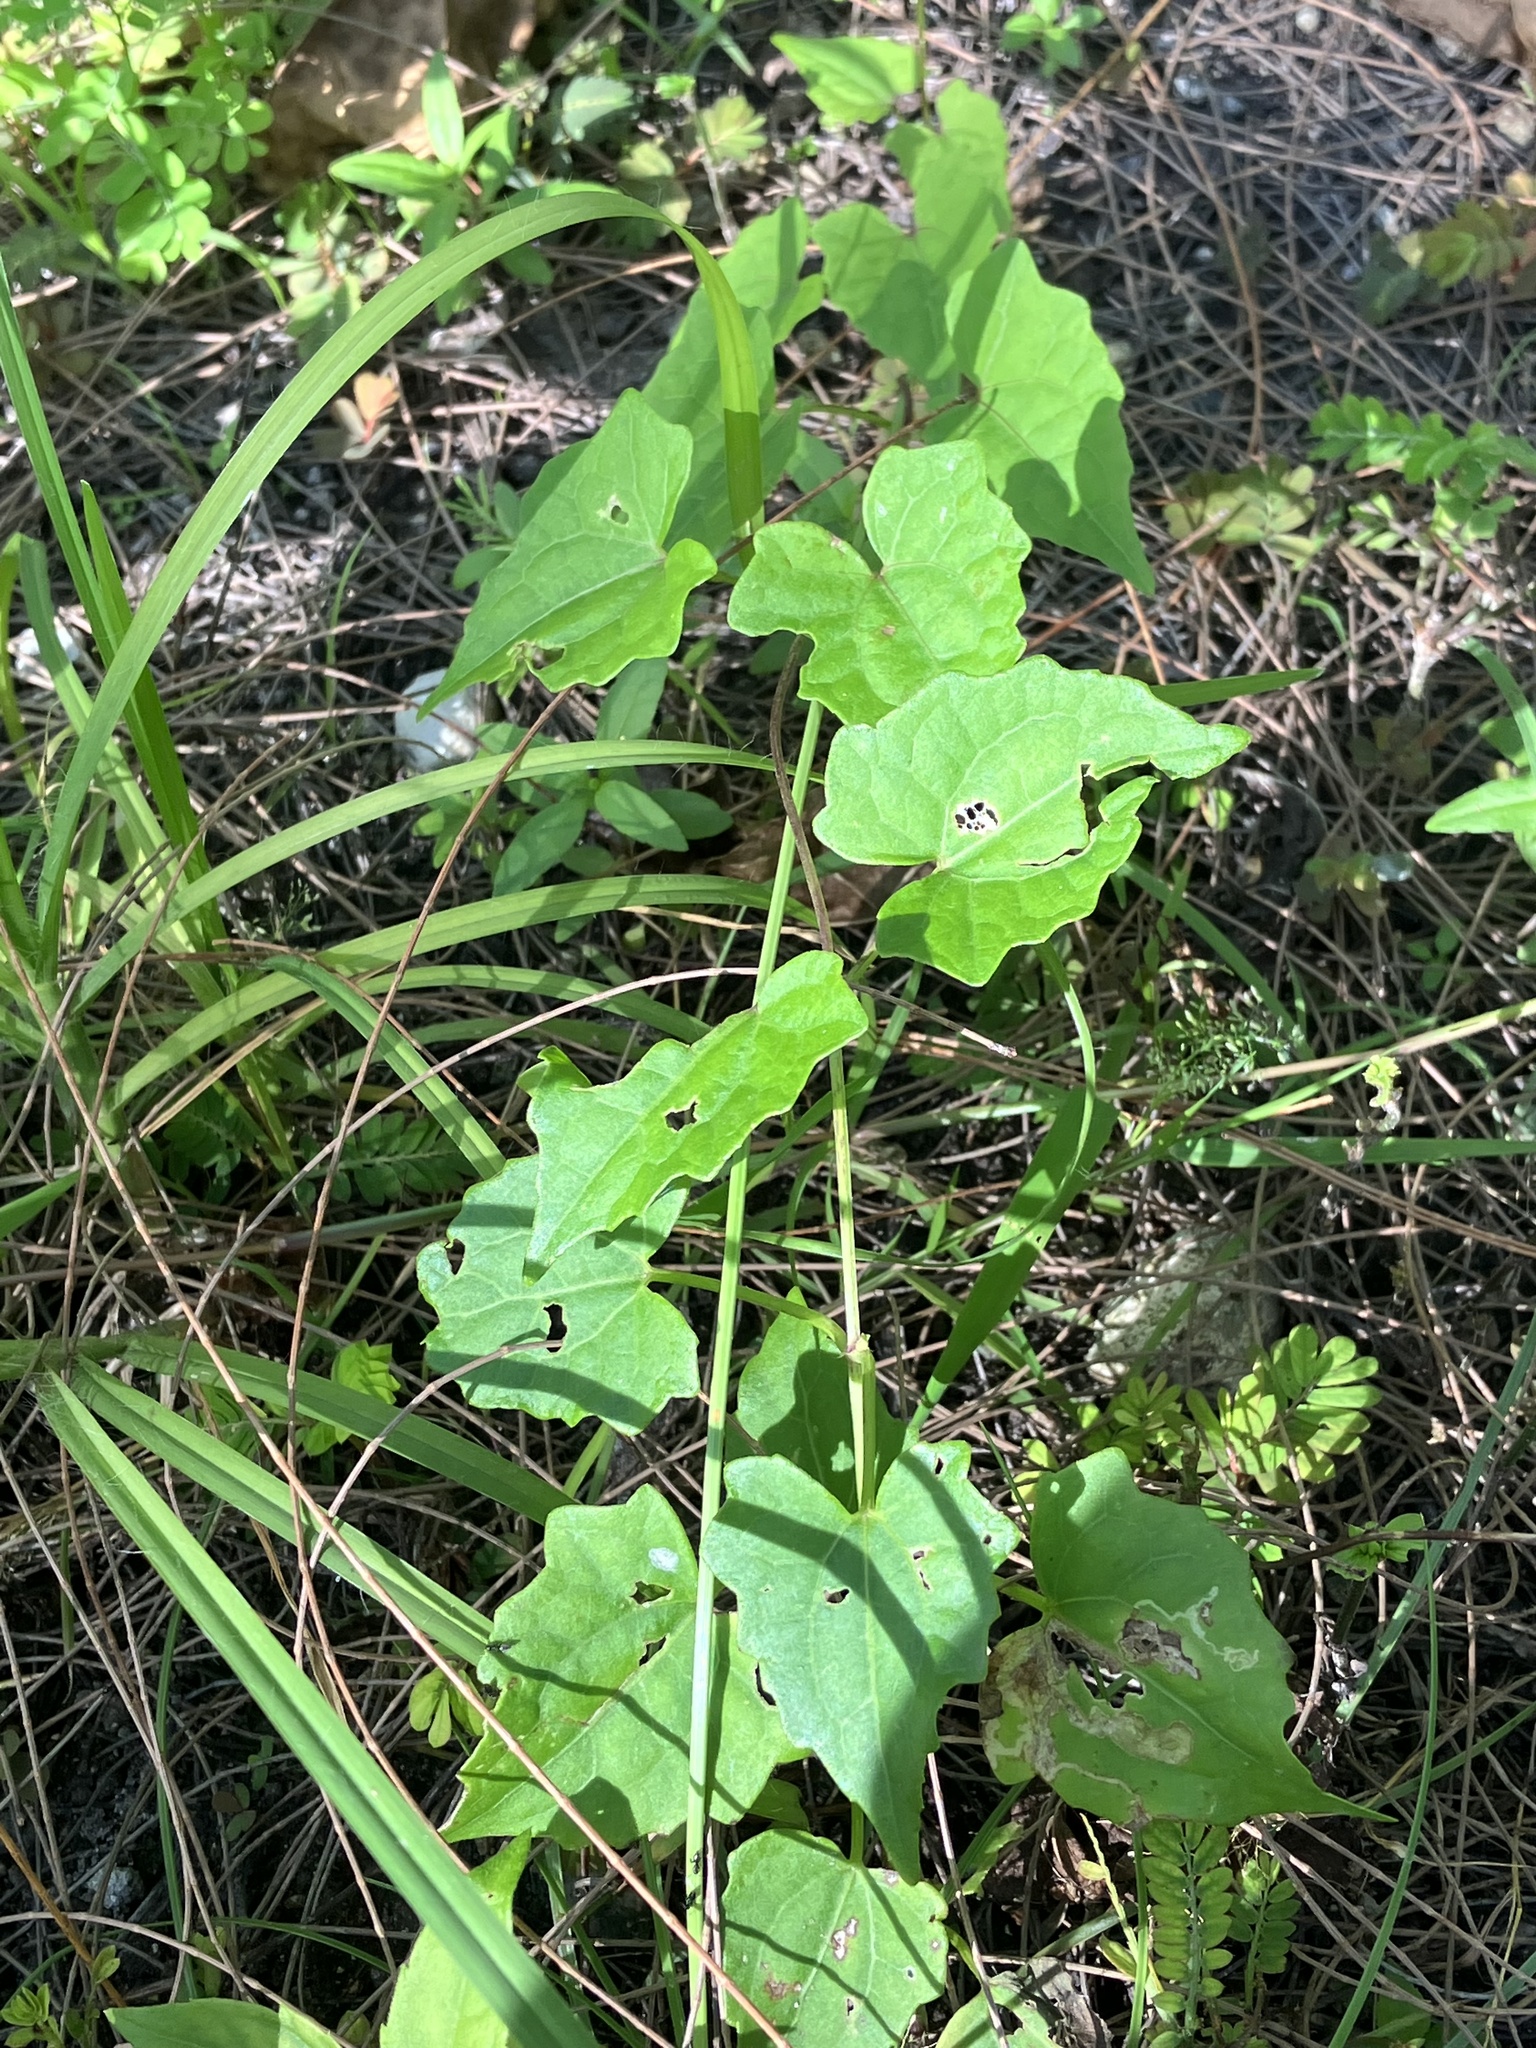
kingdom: Plantae
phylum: Tracheophyta
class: Magnoliopsida
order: Asterales
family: Asteraceae
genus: Mikania
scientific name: Mikania micrantha
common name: Mile-a-minute
